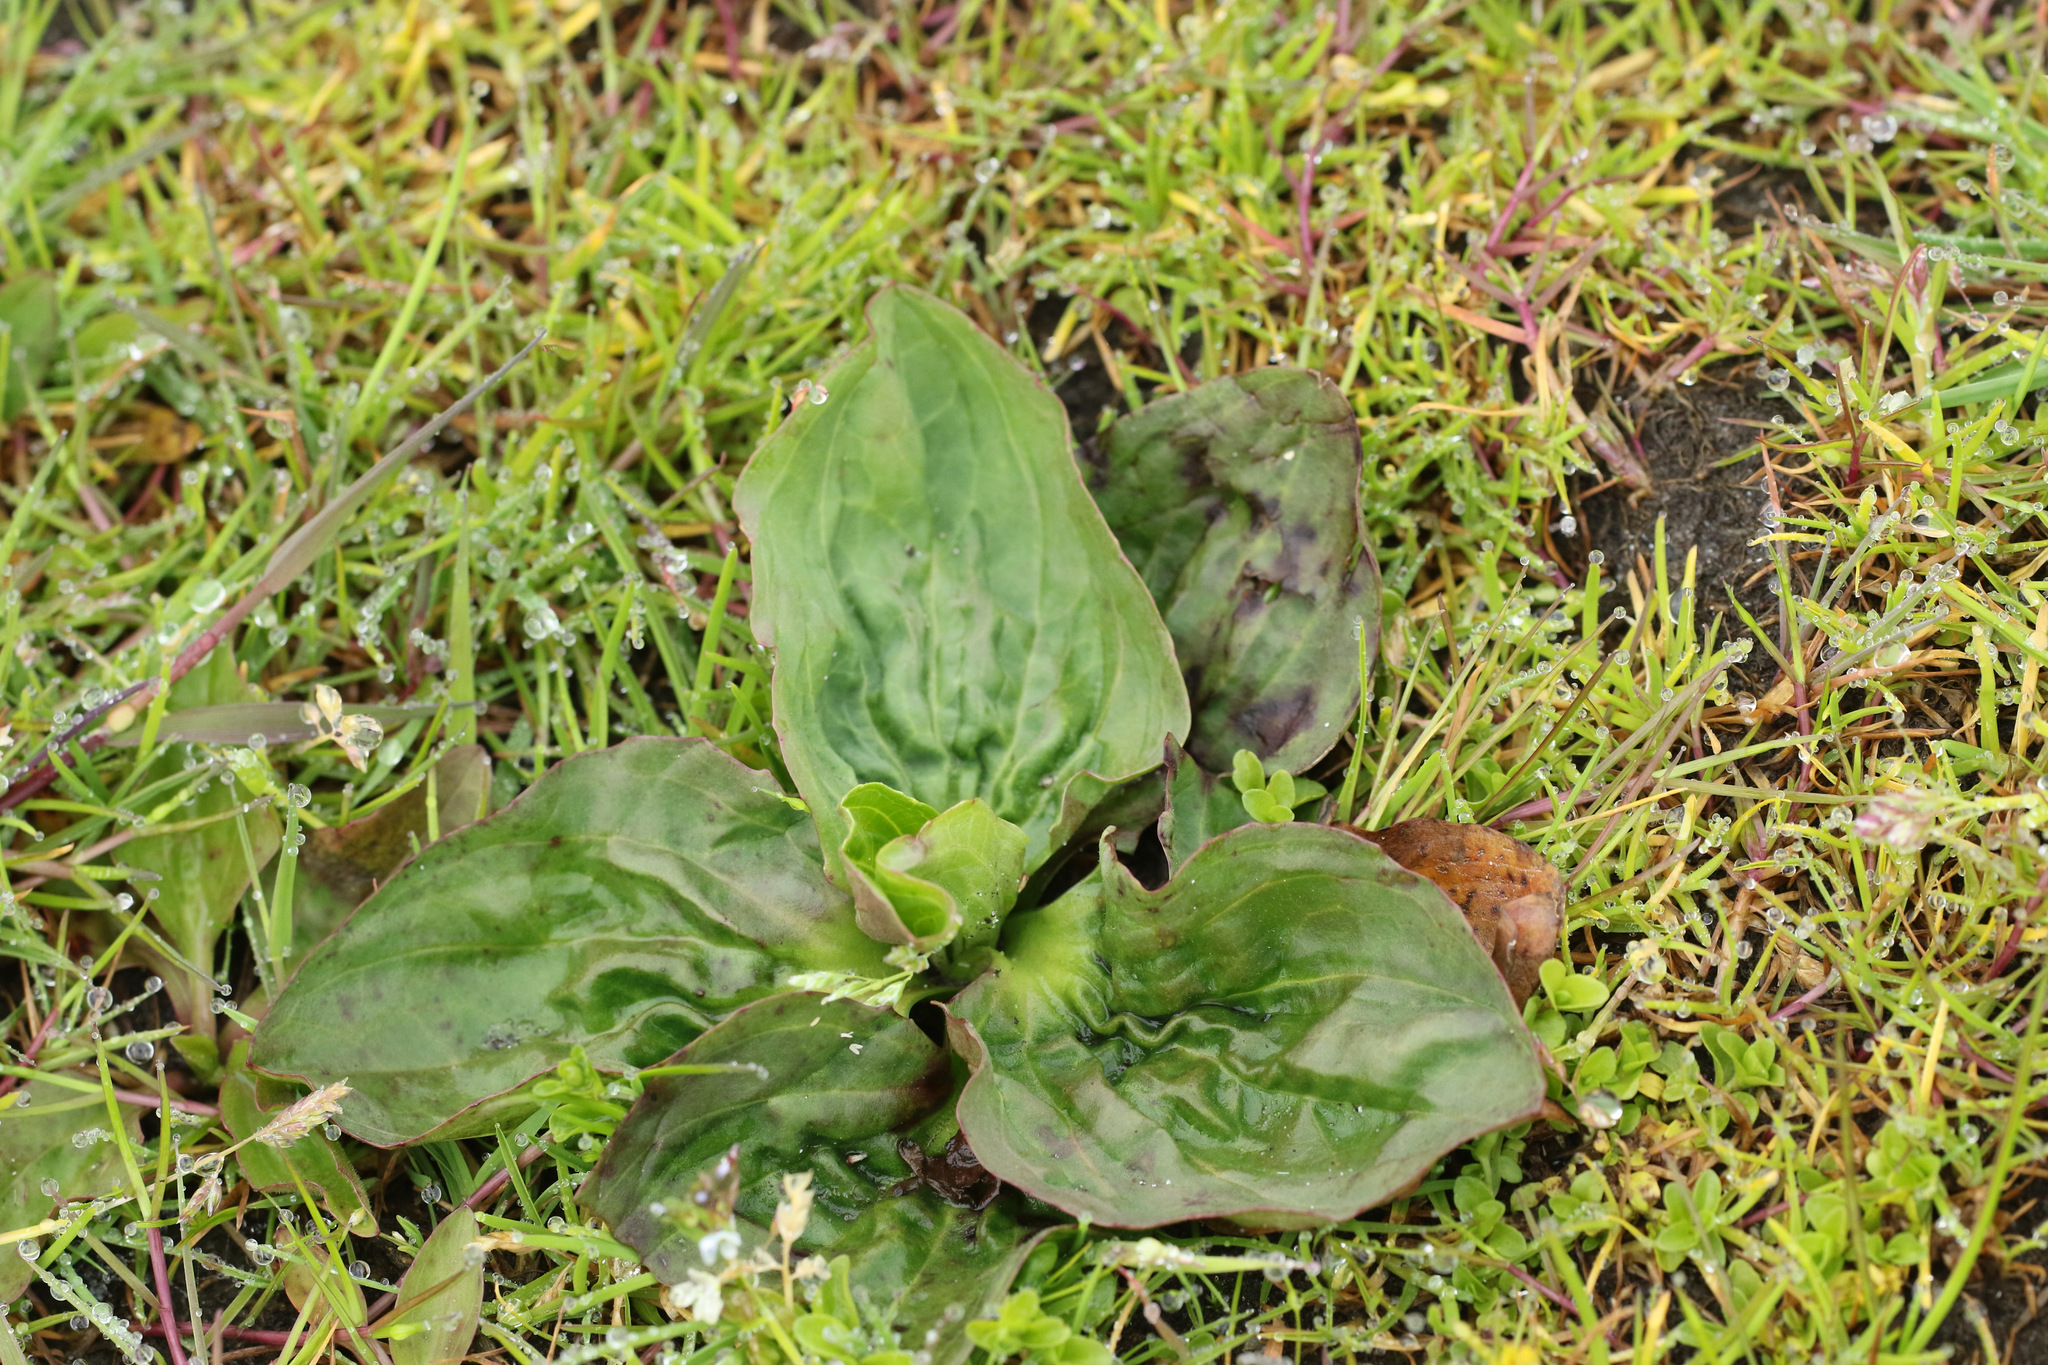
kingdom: Plantae
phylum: Tracheophyta
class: Magnoliopsida
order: Lamiales
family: Plantaginaceae
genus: Plantago
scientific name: Plantago major
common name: Common plantain
